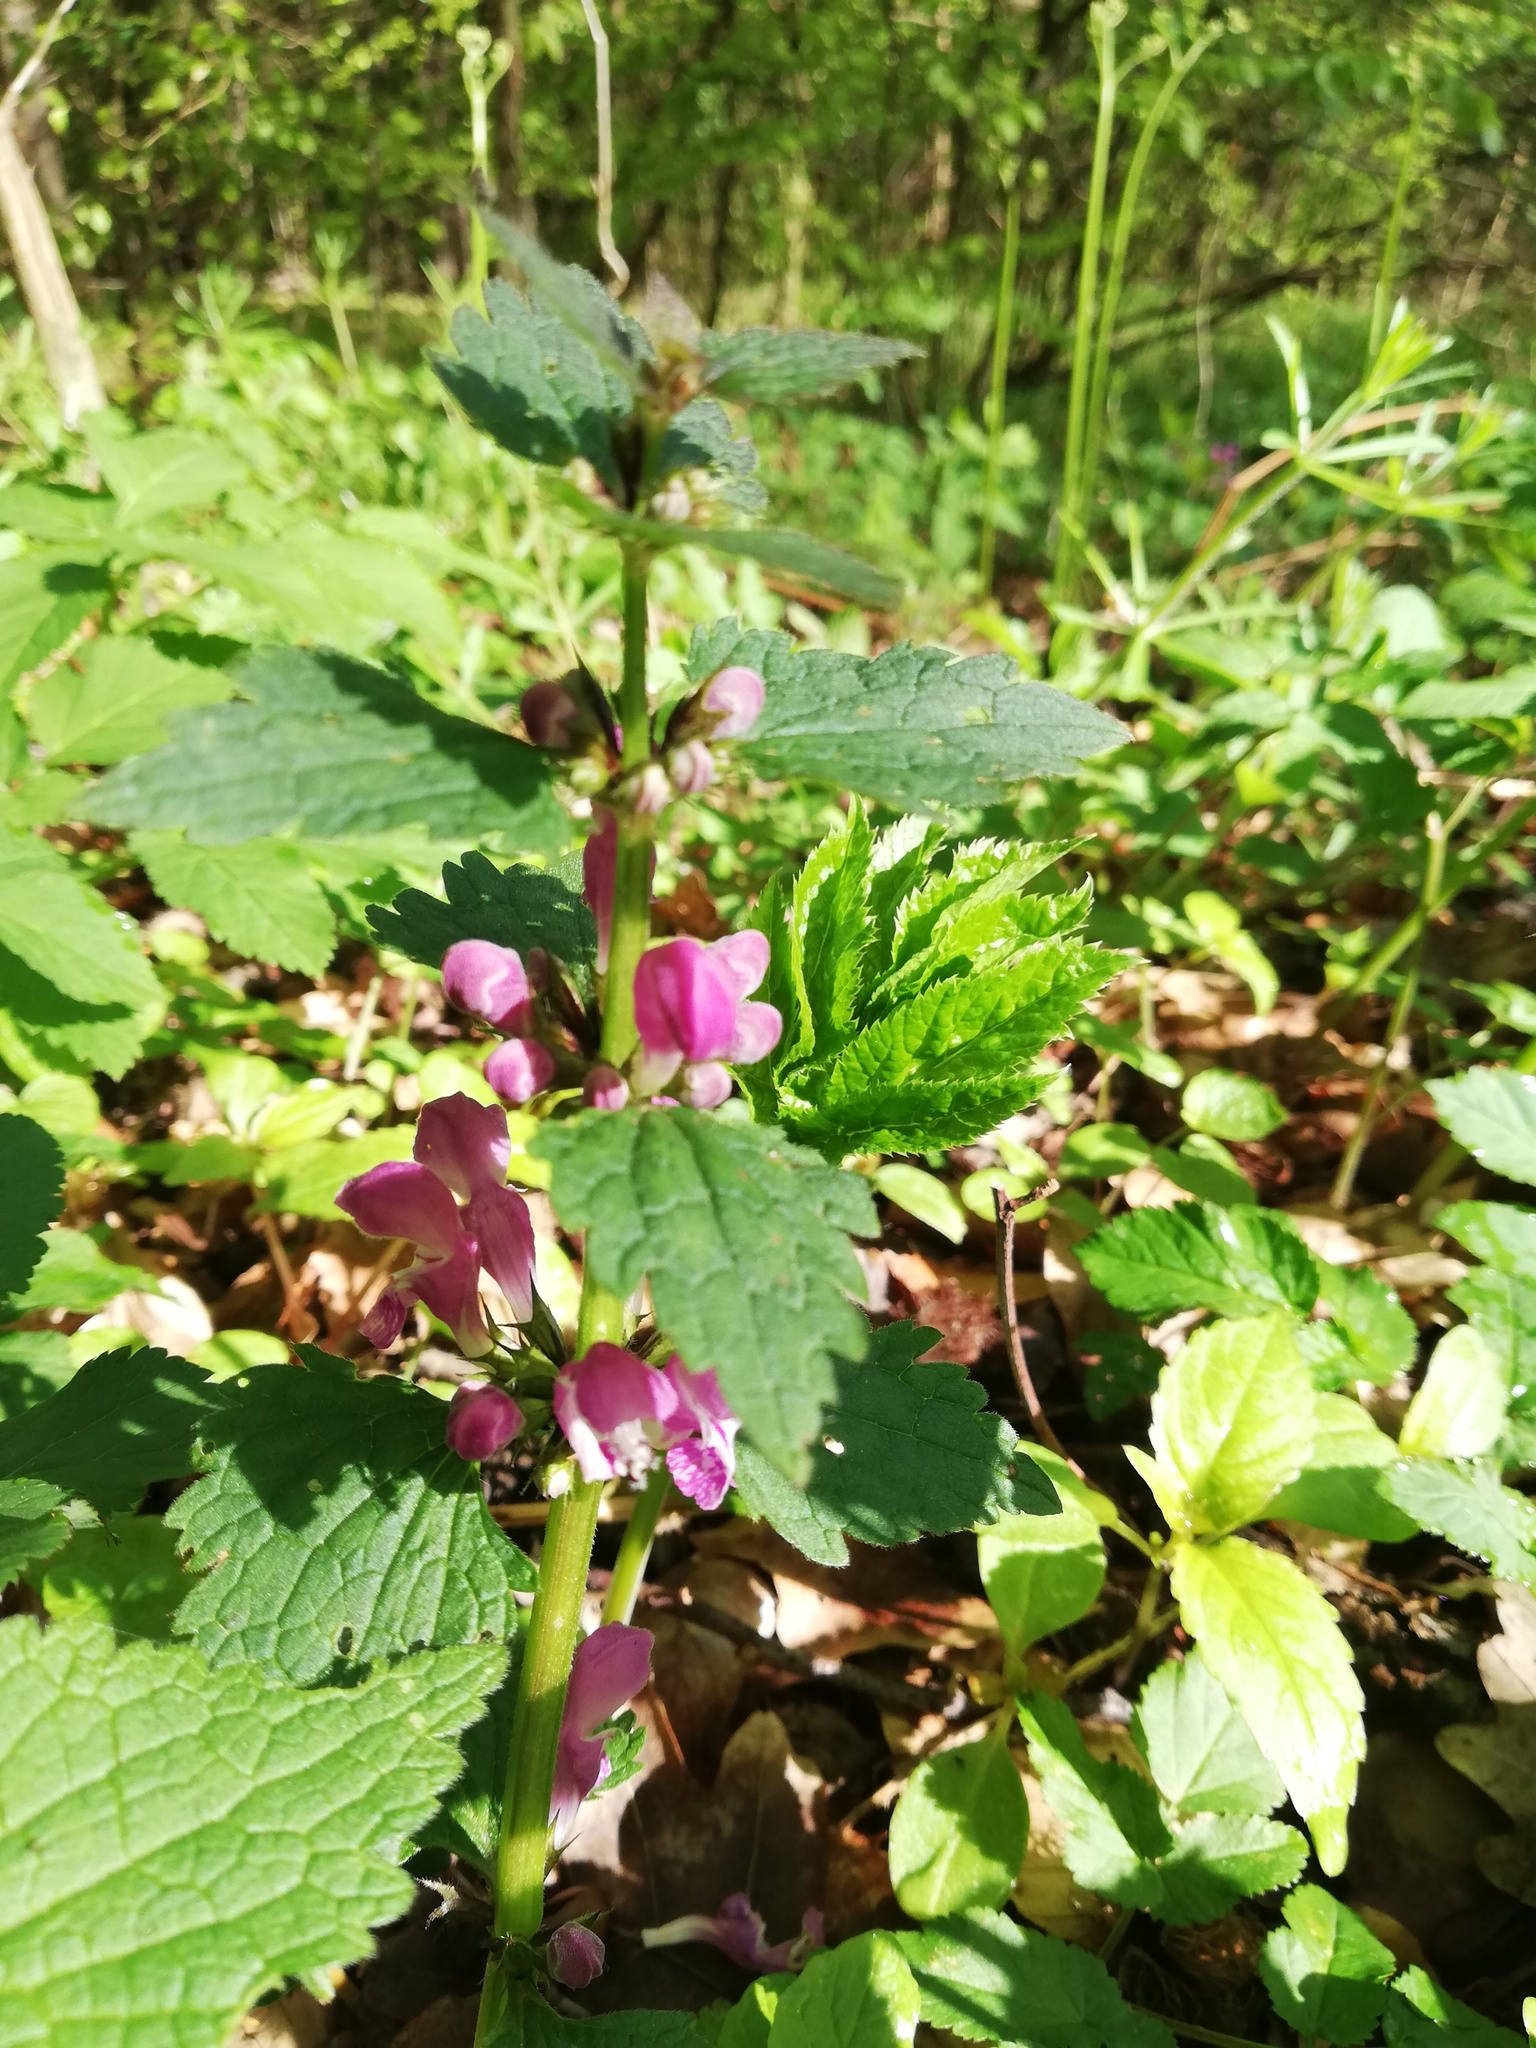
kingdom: Plantae
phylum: Tracheophyta
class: Magnoliopsida
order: Lamiales
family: Lamiaceae
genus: Lamium
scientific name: Lamium maculatum
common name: Spotted dead-nettle
